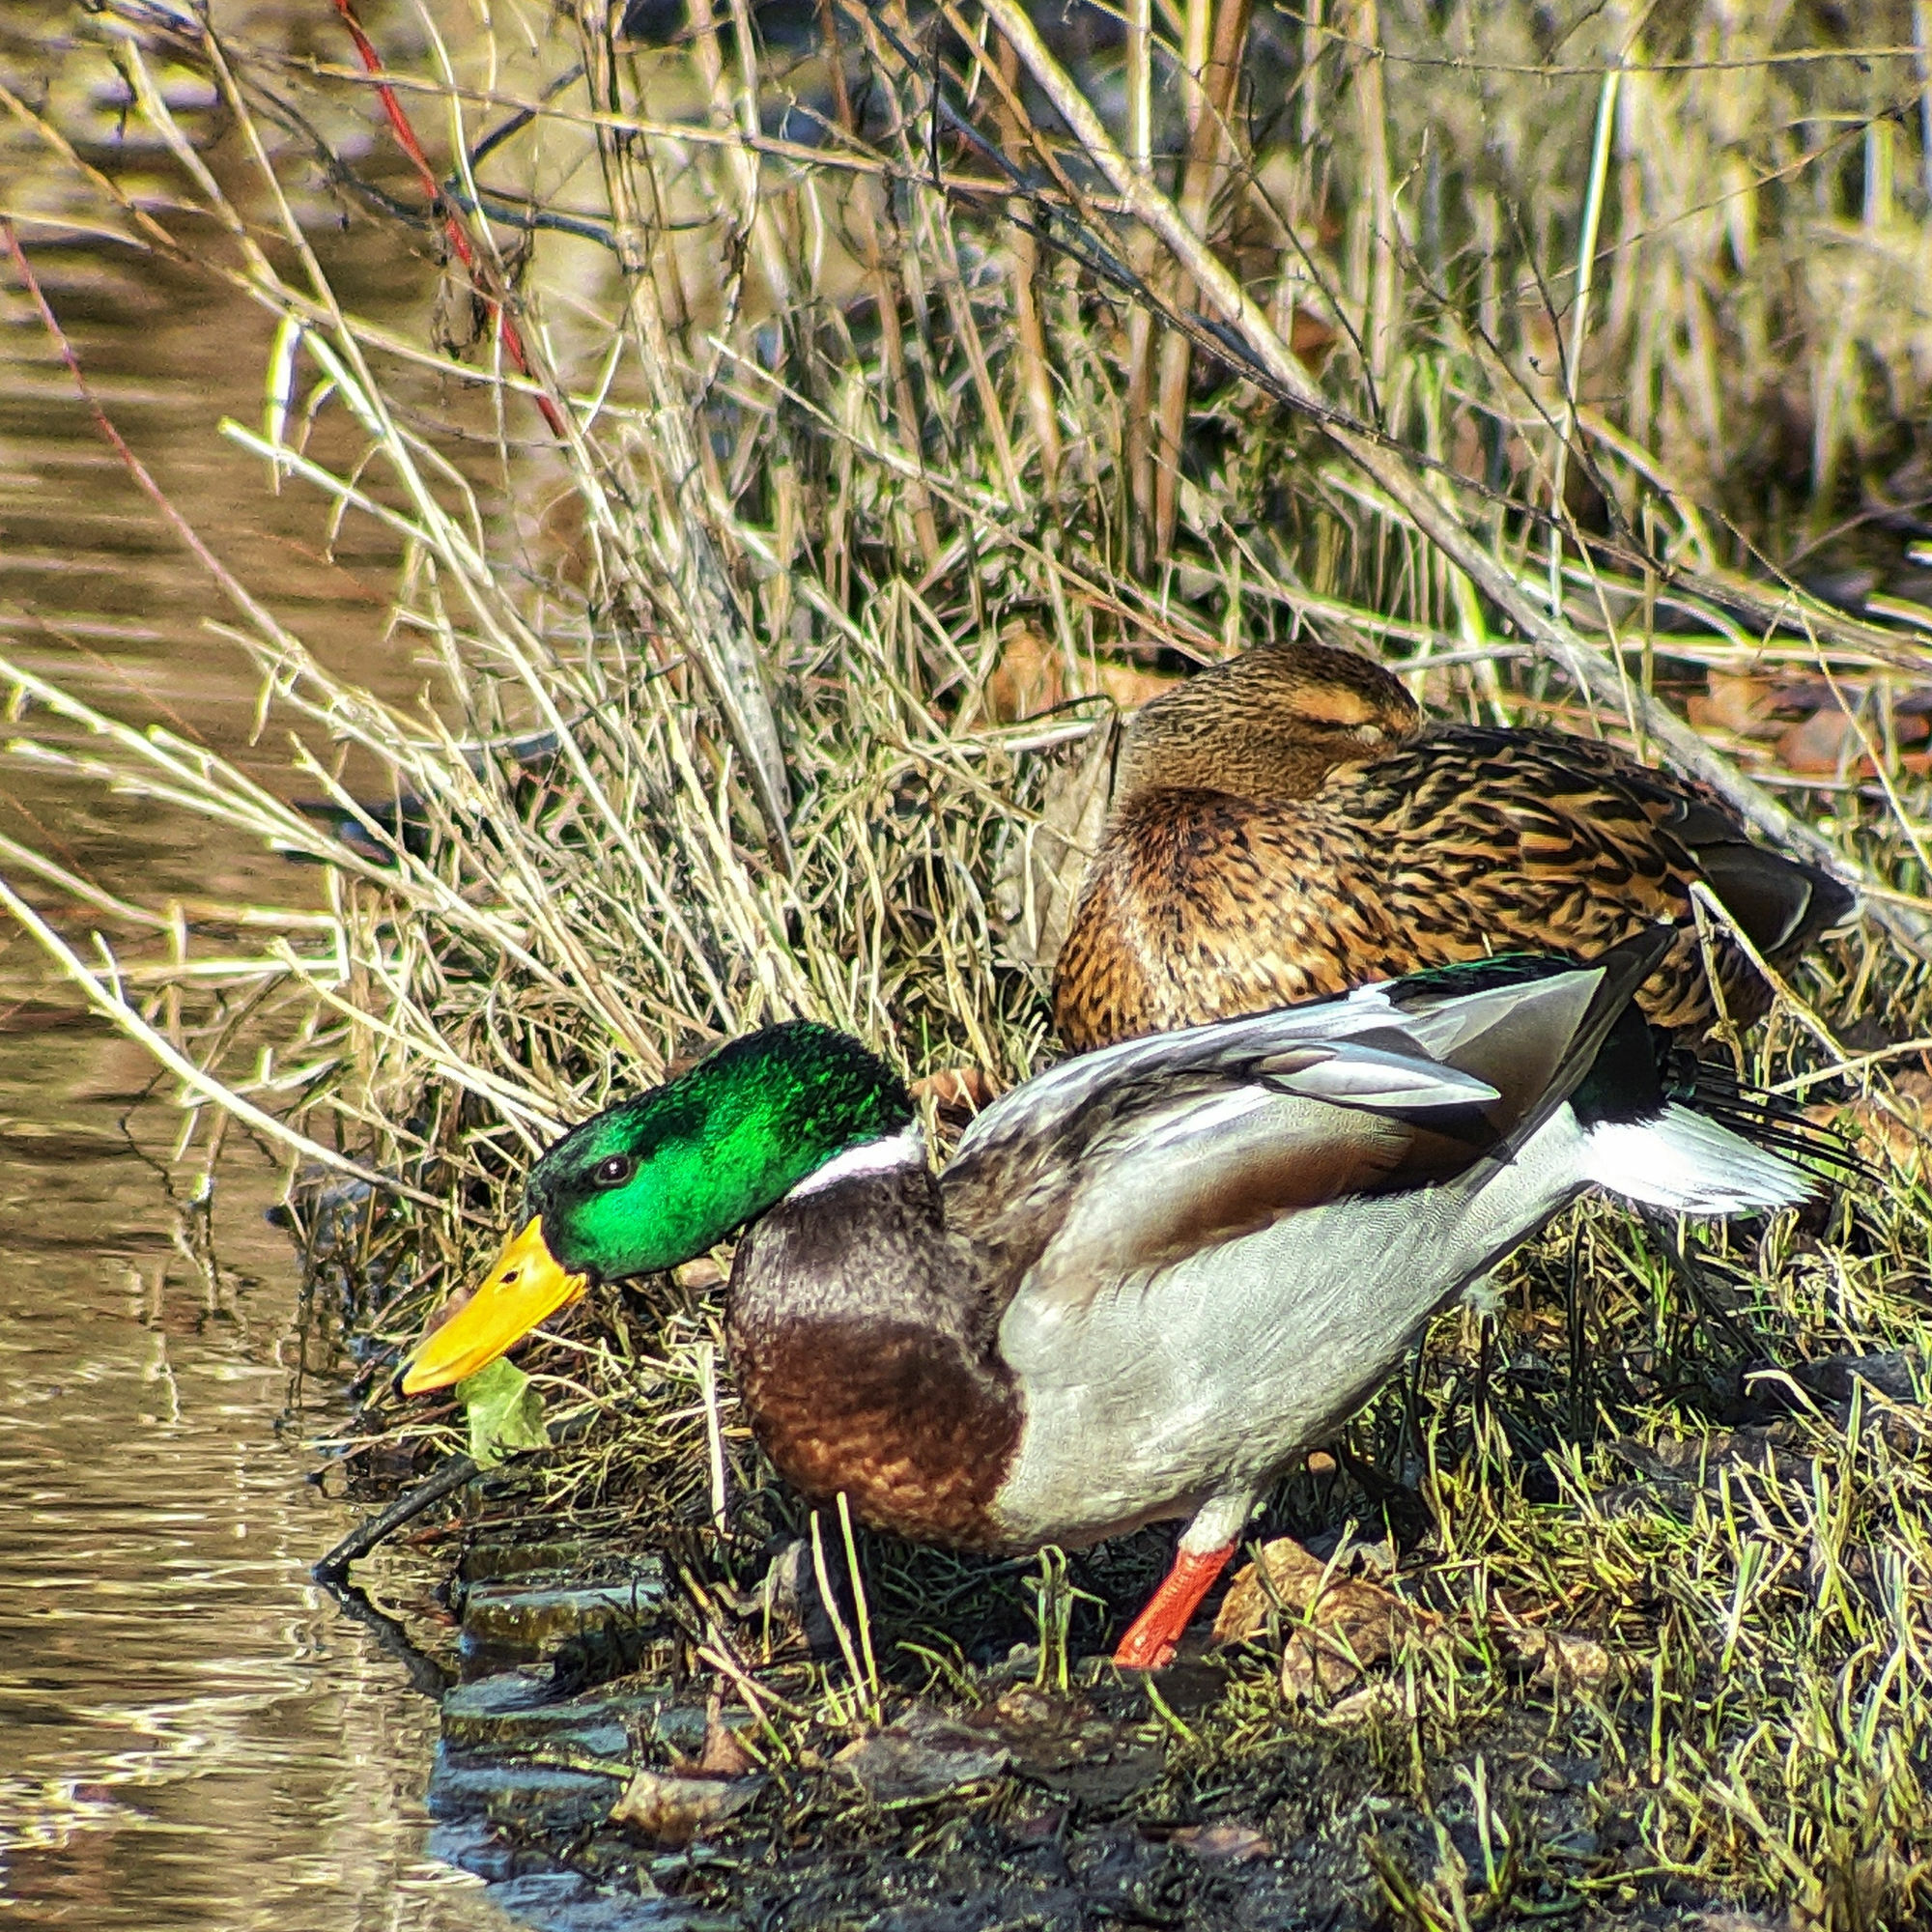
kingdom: Animalia
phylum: Chordata
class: Aves
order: Anseriformes
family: Anatidae
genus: Anas
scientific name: Anas platyrhynchos
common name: Mallard
